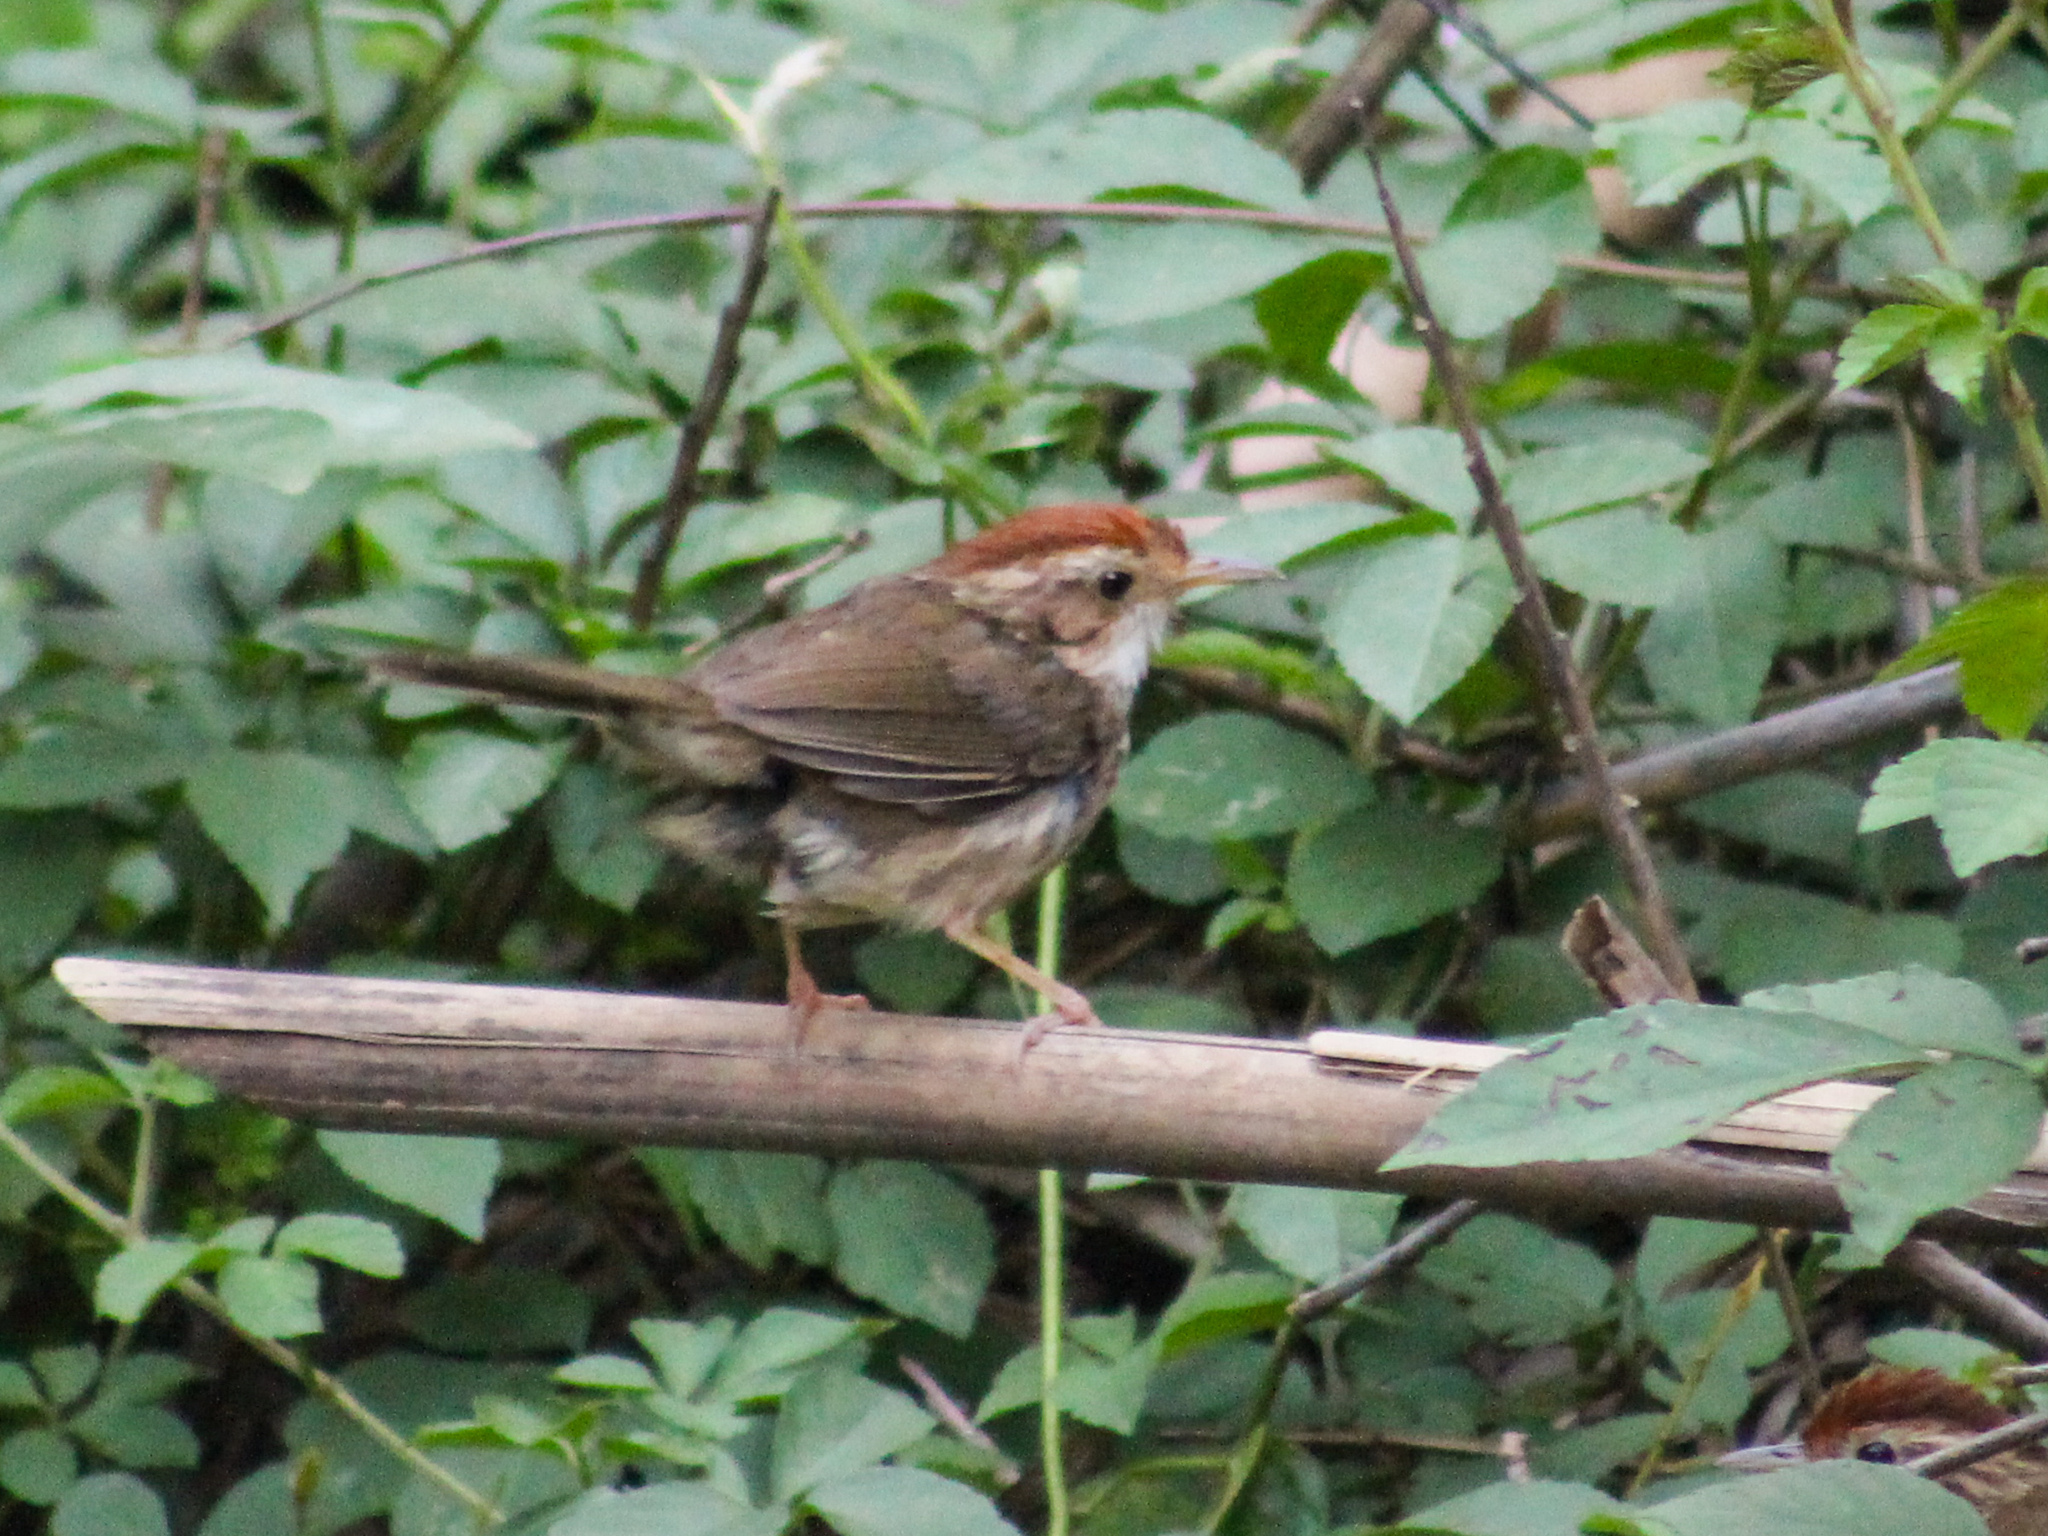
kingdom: Animalia
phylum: Chordata
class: Aves
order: Passeriformes
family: Pellorneidae
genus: Pellorneum
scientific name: Pellorneum ruficeps
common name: Puff-throated babbler
